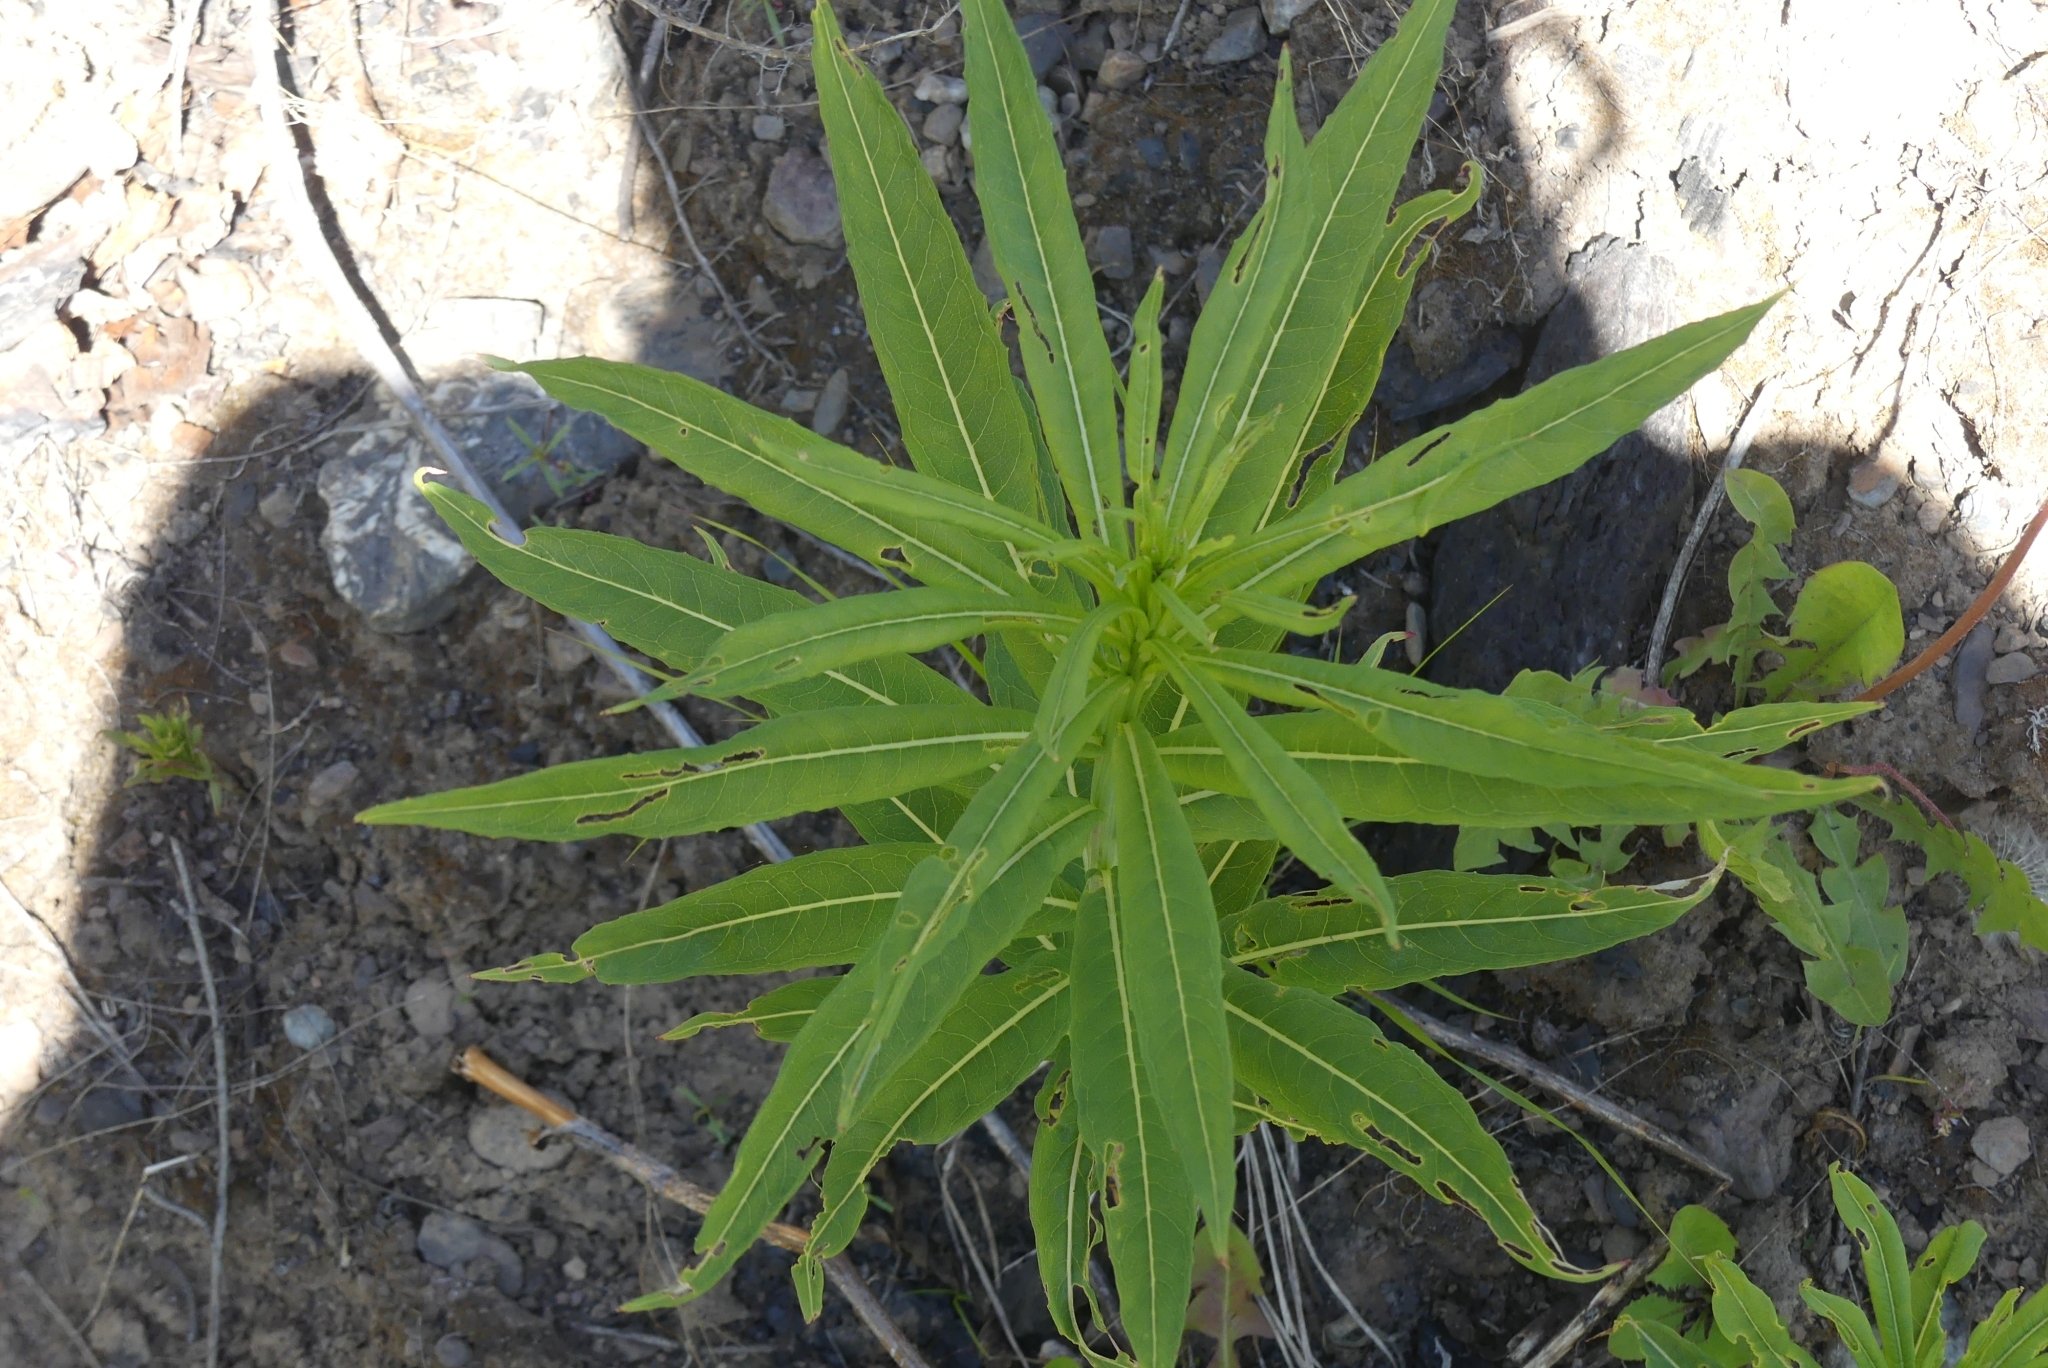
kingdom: Plantae
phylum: Tracheophyta
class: Magnoliopsida
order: Myrtales
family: Onagraceae
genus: Chamaenerion
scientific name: Chamaenerion angustifolium
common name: Fireweed
